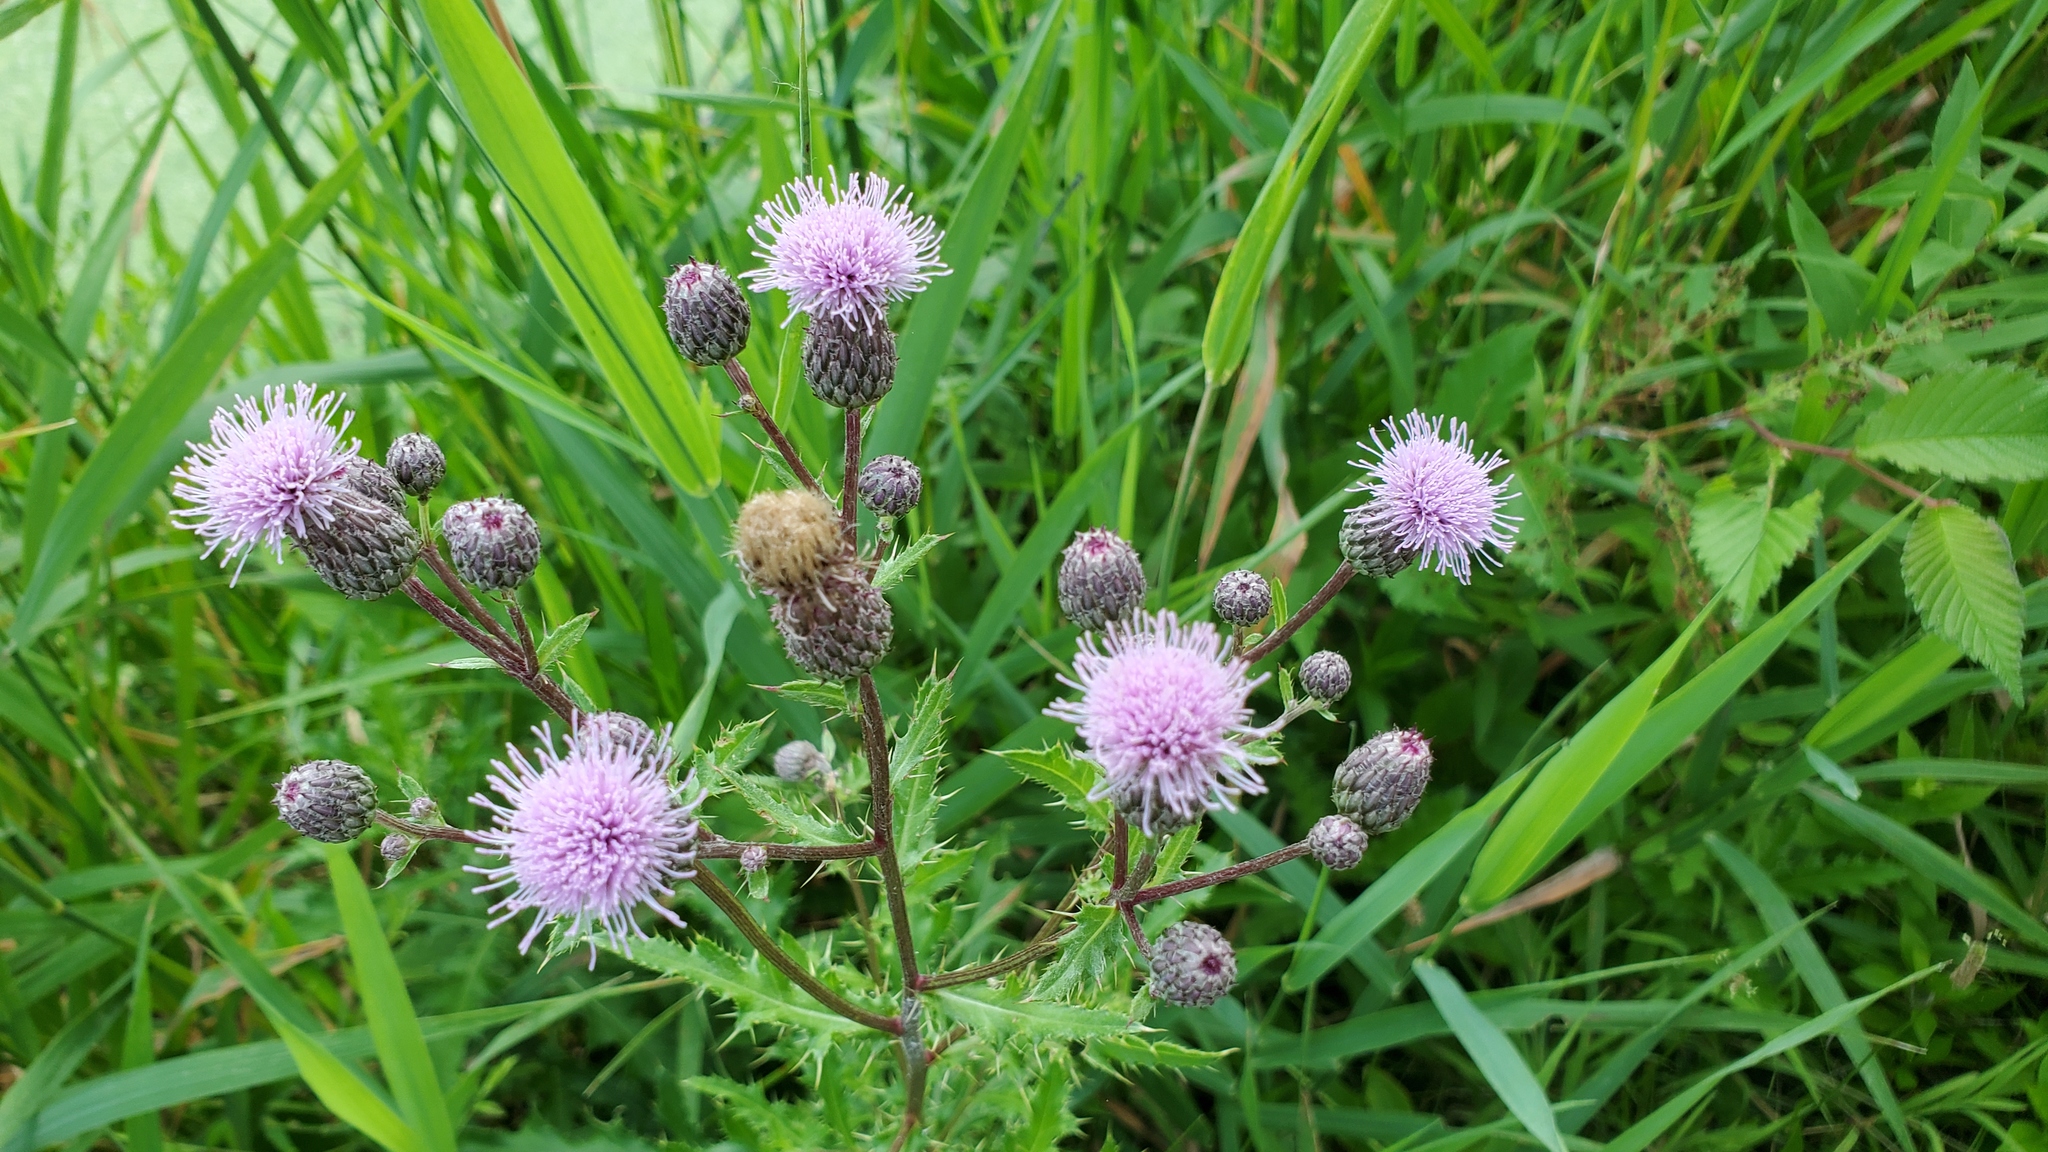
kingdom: Plantae
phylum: Tracheophyta
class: Magnoliopsida
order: Asterales
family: Asteraceae
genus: Cirsium
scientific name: Cirsium arvense
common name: Creeping thistle
